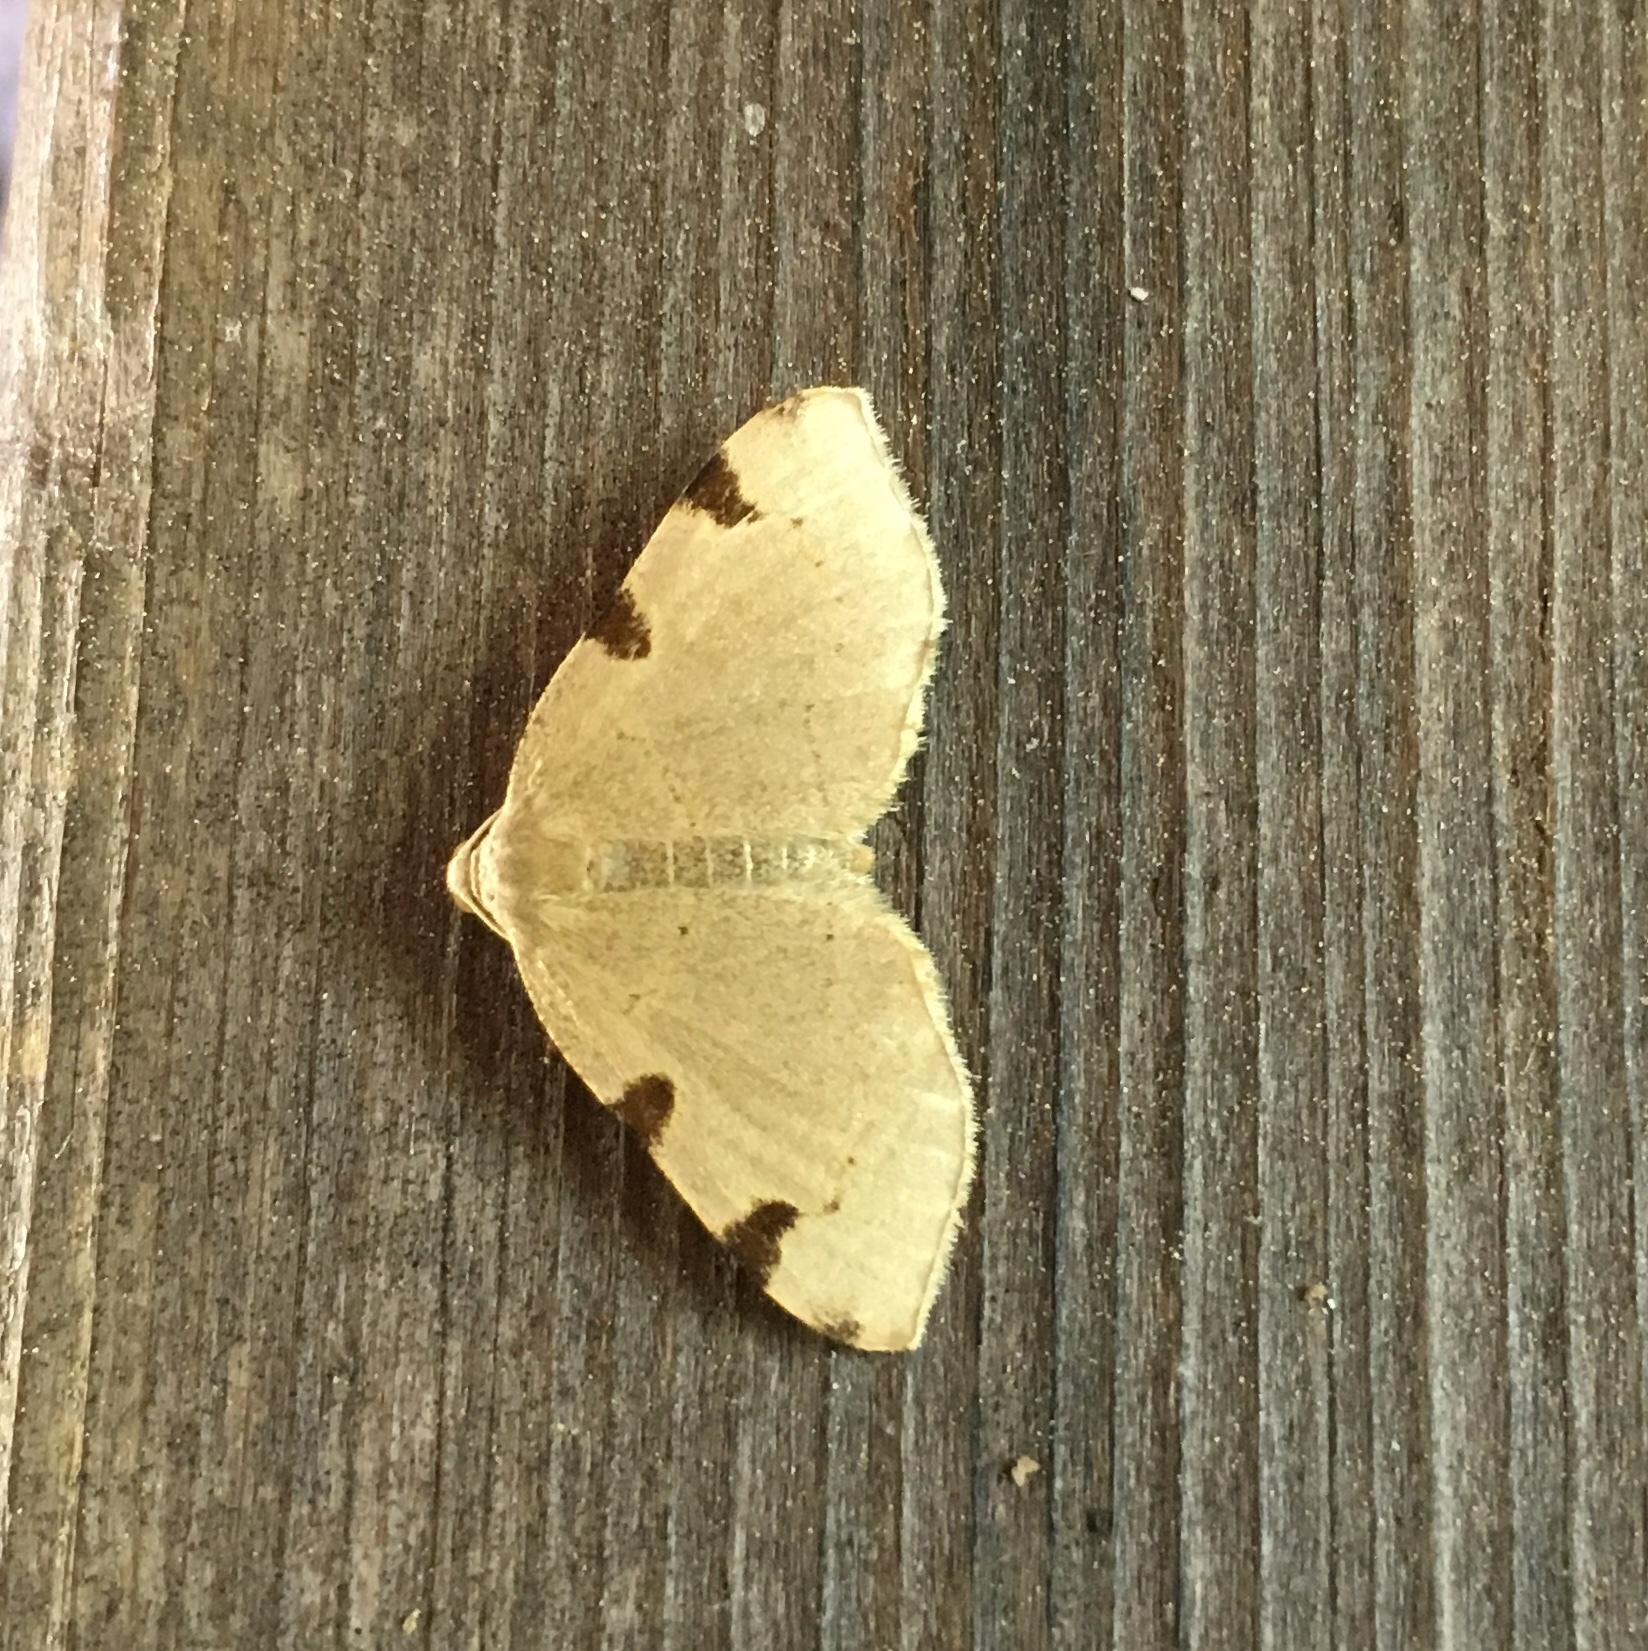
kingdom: Animalia
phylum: Arthropoda
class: Insecta
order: Lepidoptera
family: Geometridae
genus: Heterophleps
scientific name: Heterophleps triguttaria
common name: Three-spotted fillip
